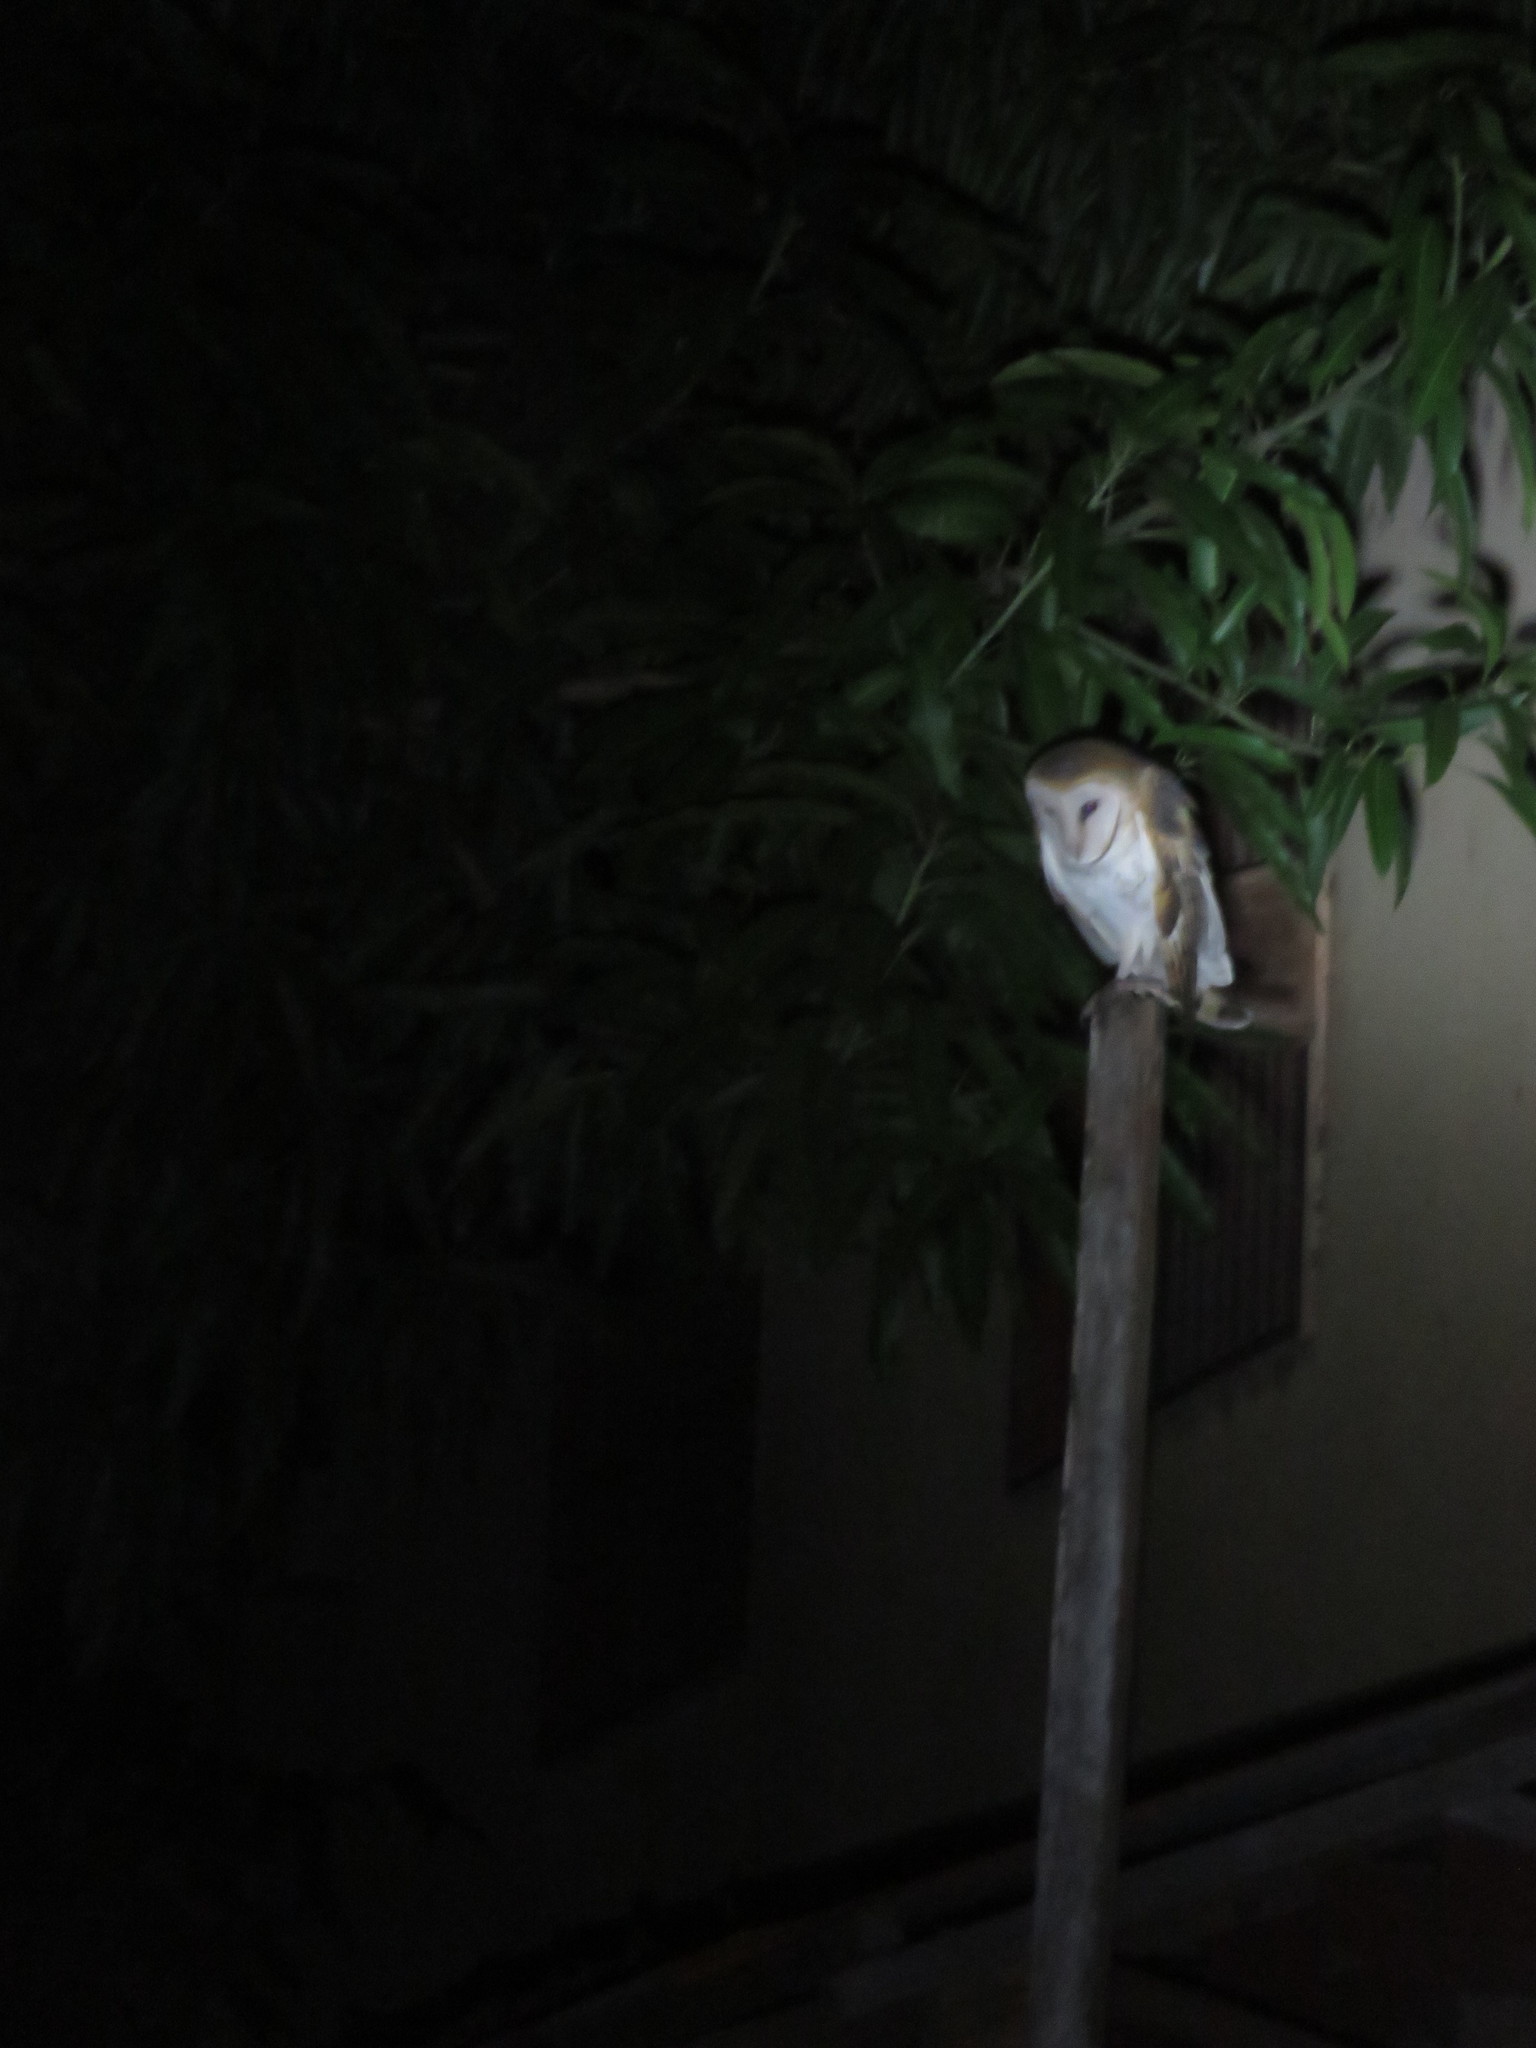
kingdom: Animalia
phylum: Chordata
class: Aves
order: Strigiformes
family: Tytonidae
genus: Tyto
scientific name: Tyto alba
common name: Barn owl
